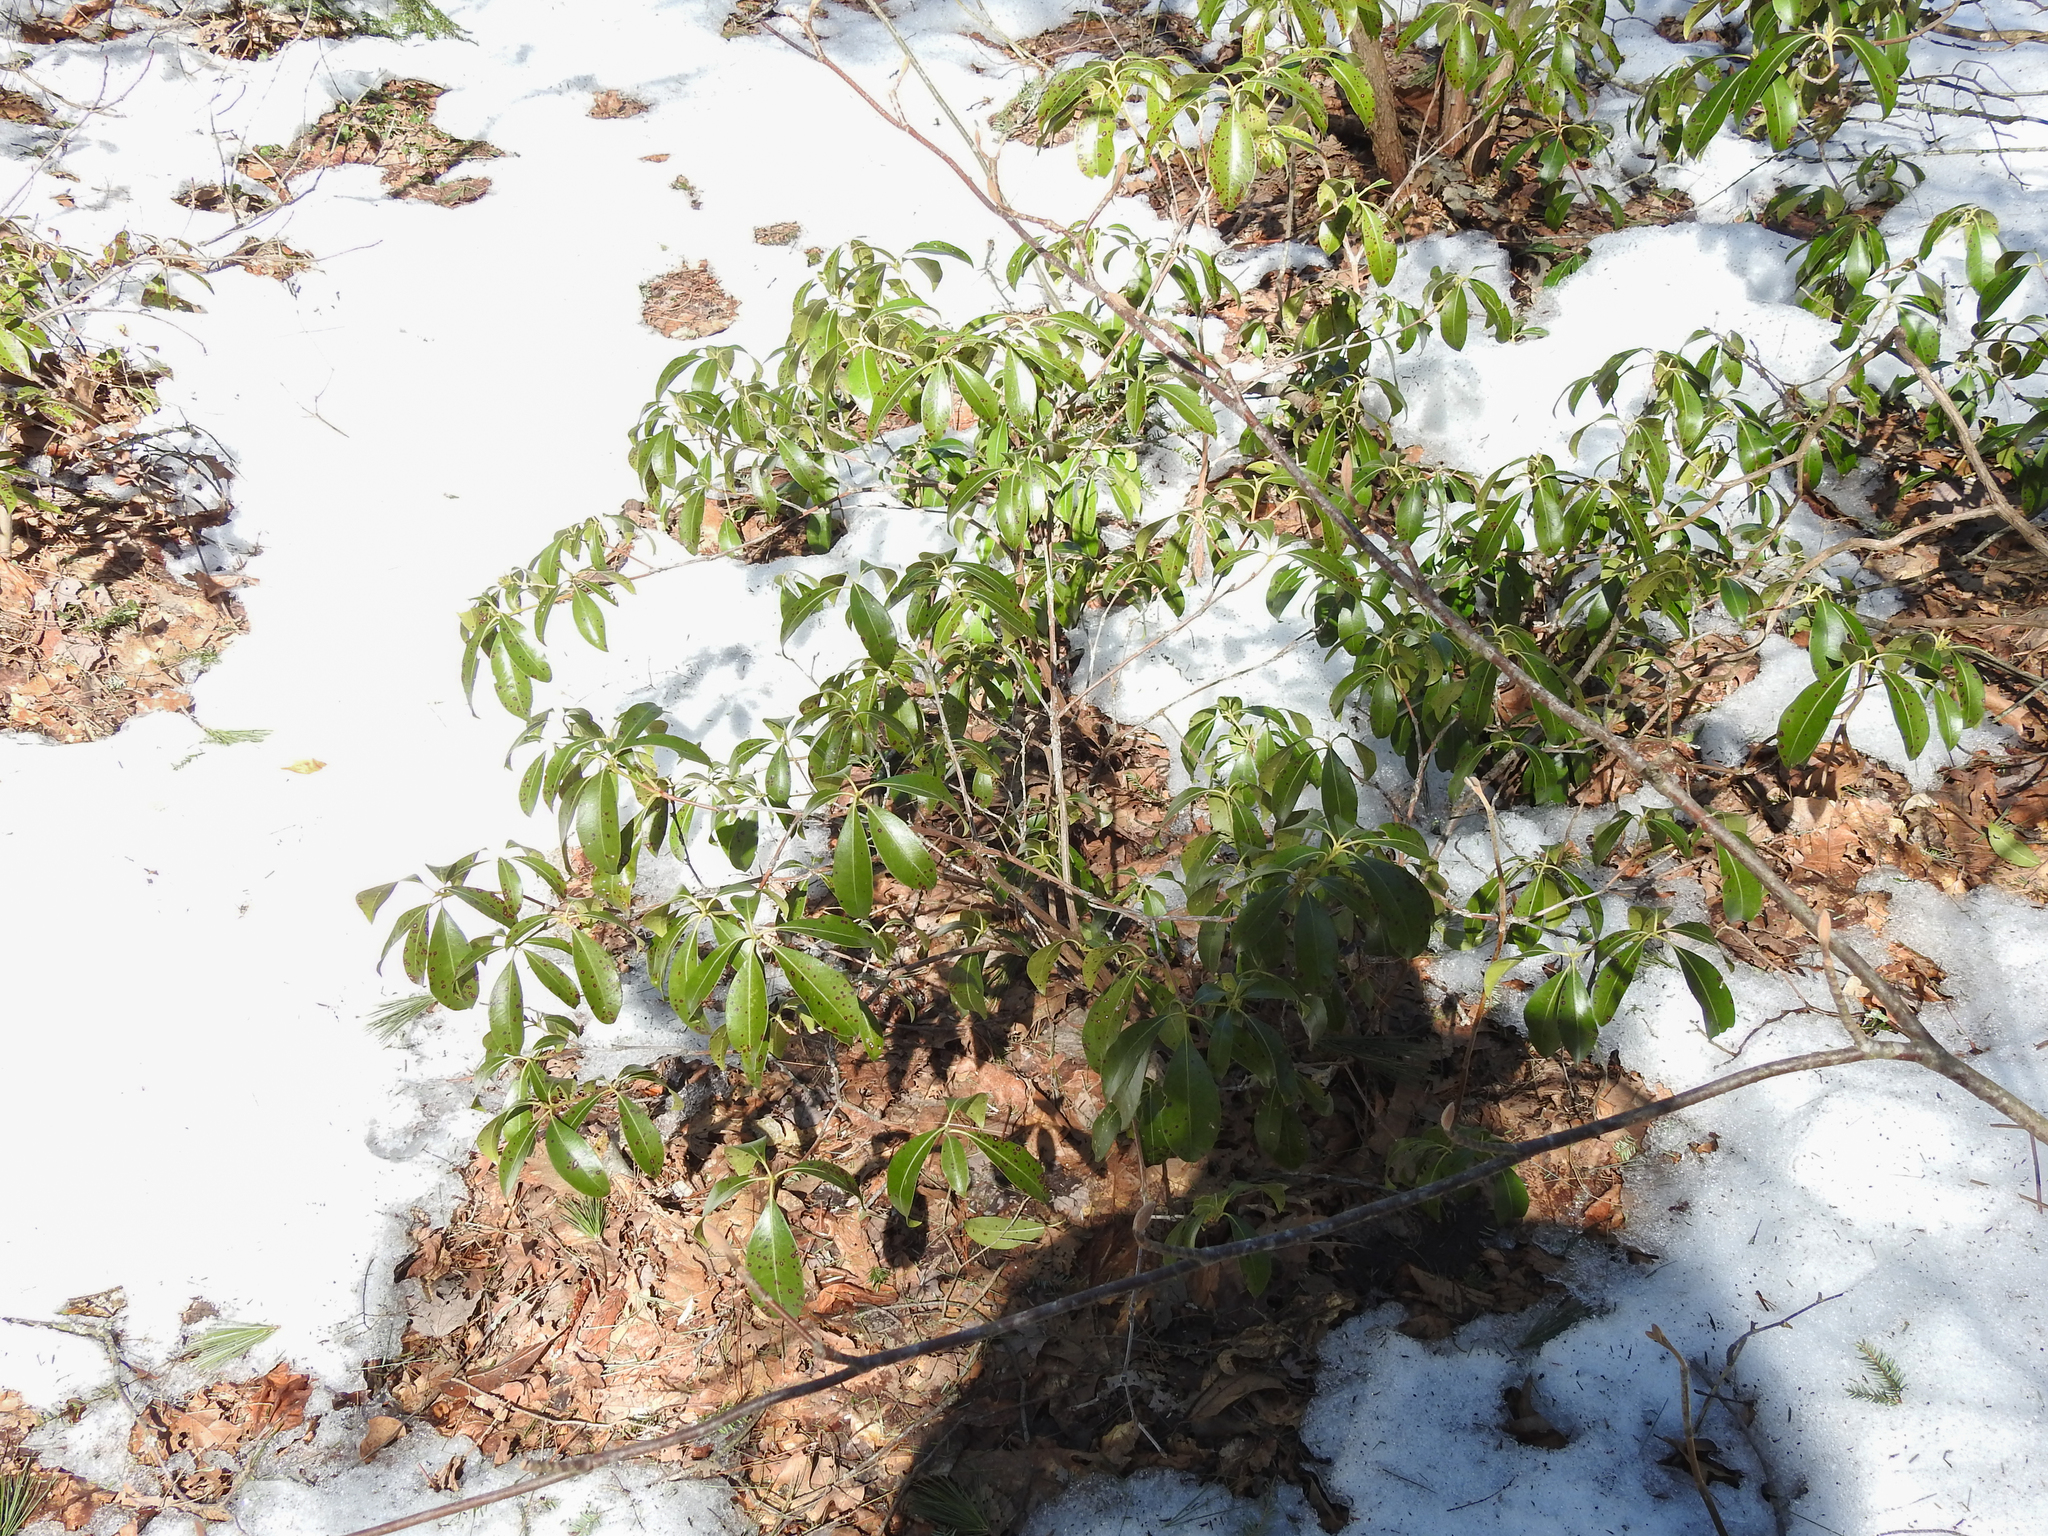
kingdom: Plantae
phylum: Tracheophyta
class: Magnoliopsida
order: Ericales
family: Ericaceae
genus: Kalmia
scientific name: Kalmia latifolia
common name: Mountain-laurel
